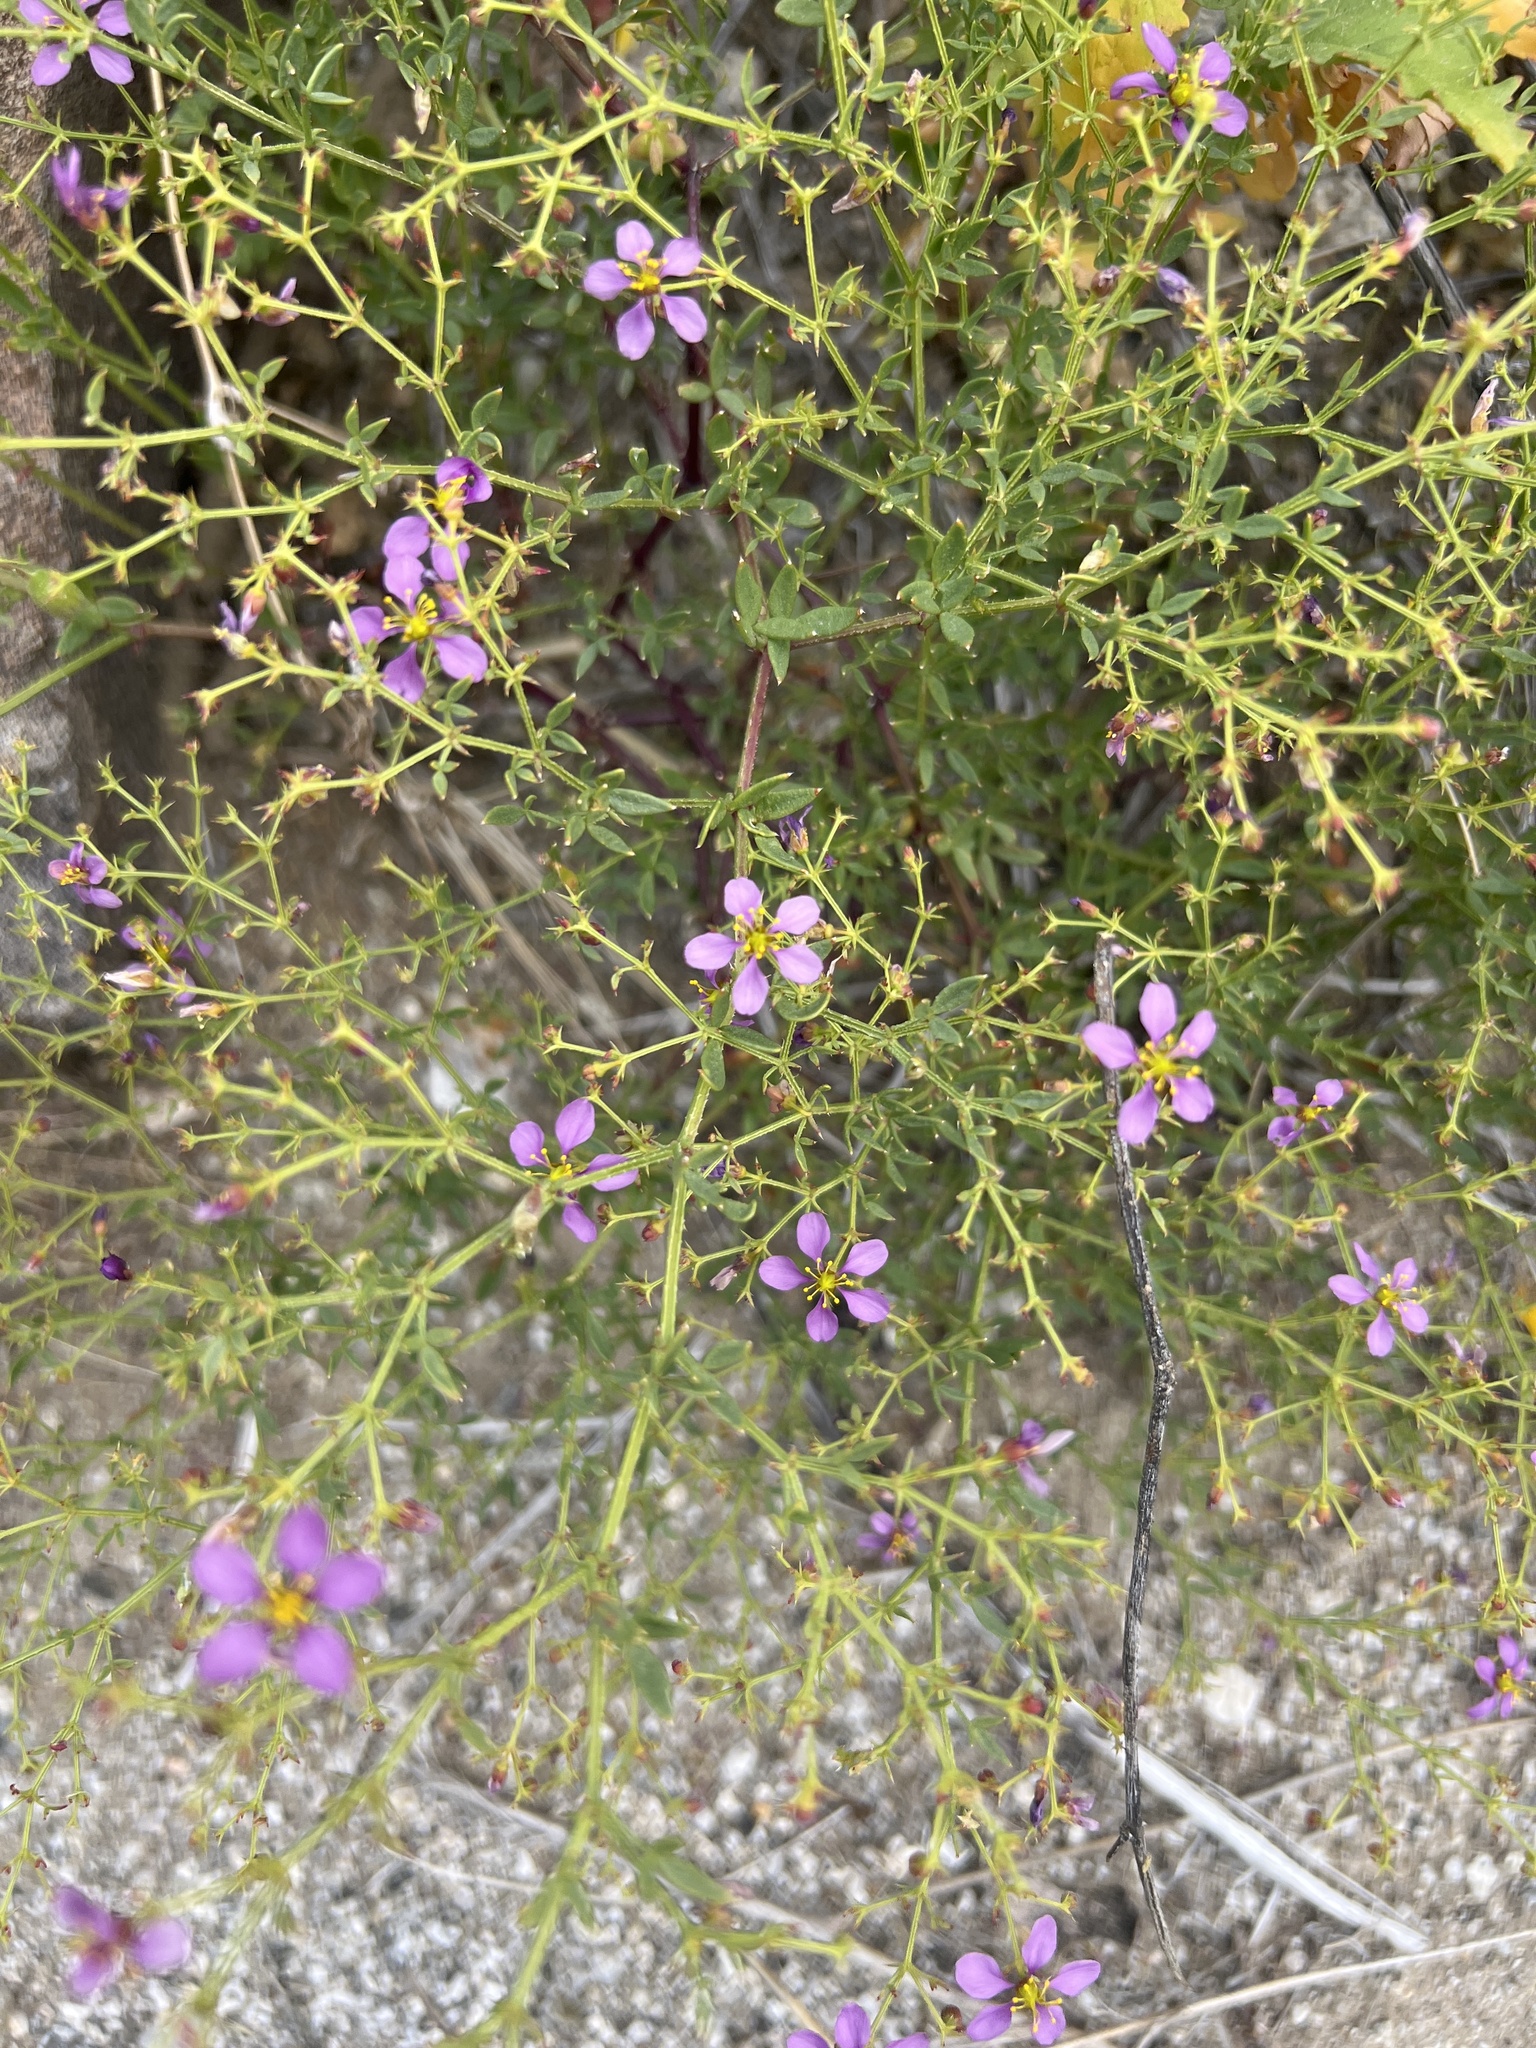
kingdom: Plantae
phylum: Tracheophyta
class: Magnoliopsida
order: Zygophyllales
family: Zygophyllaceae
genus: Fagonia
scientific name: Fagonia laevis
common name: California fagonbush
